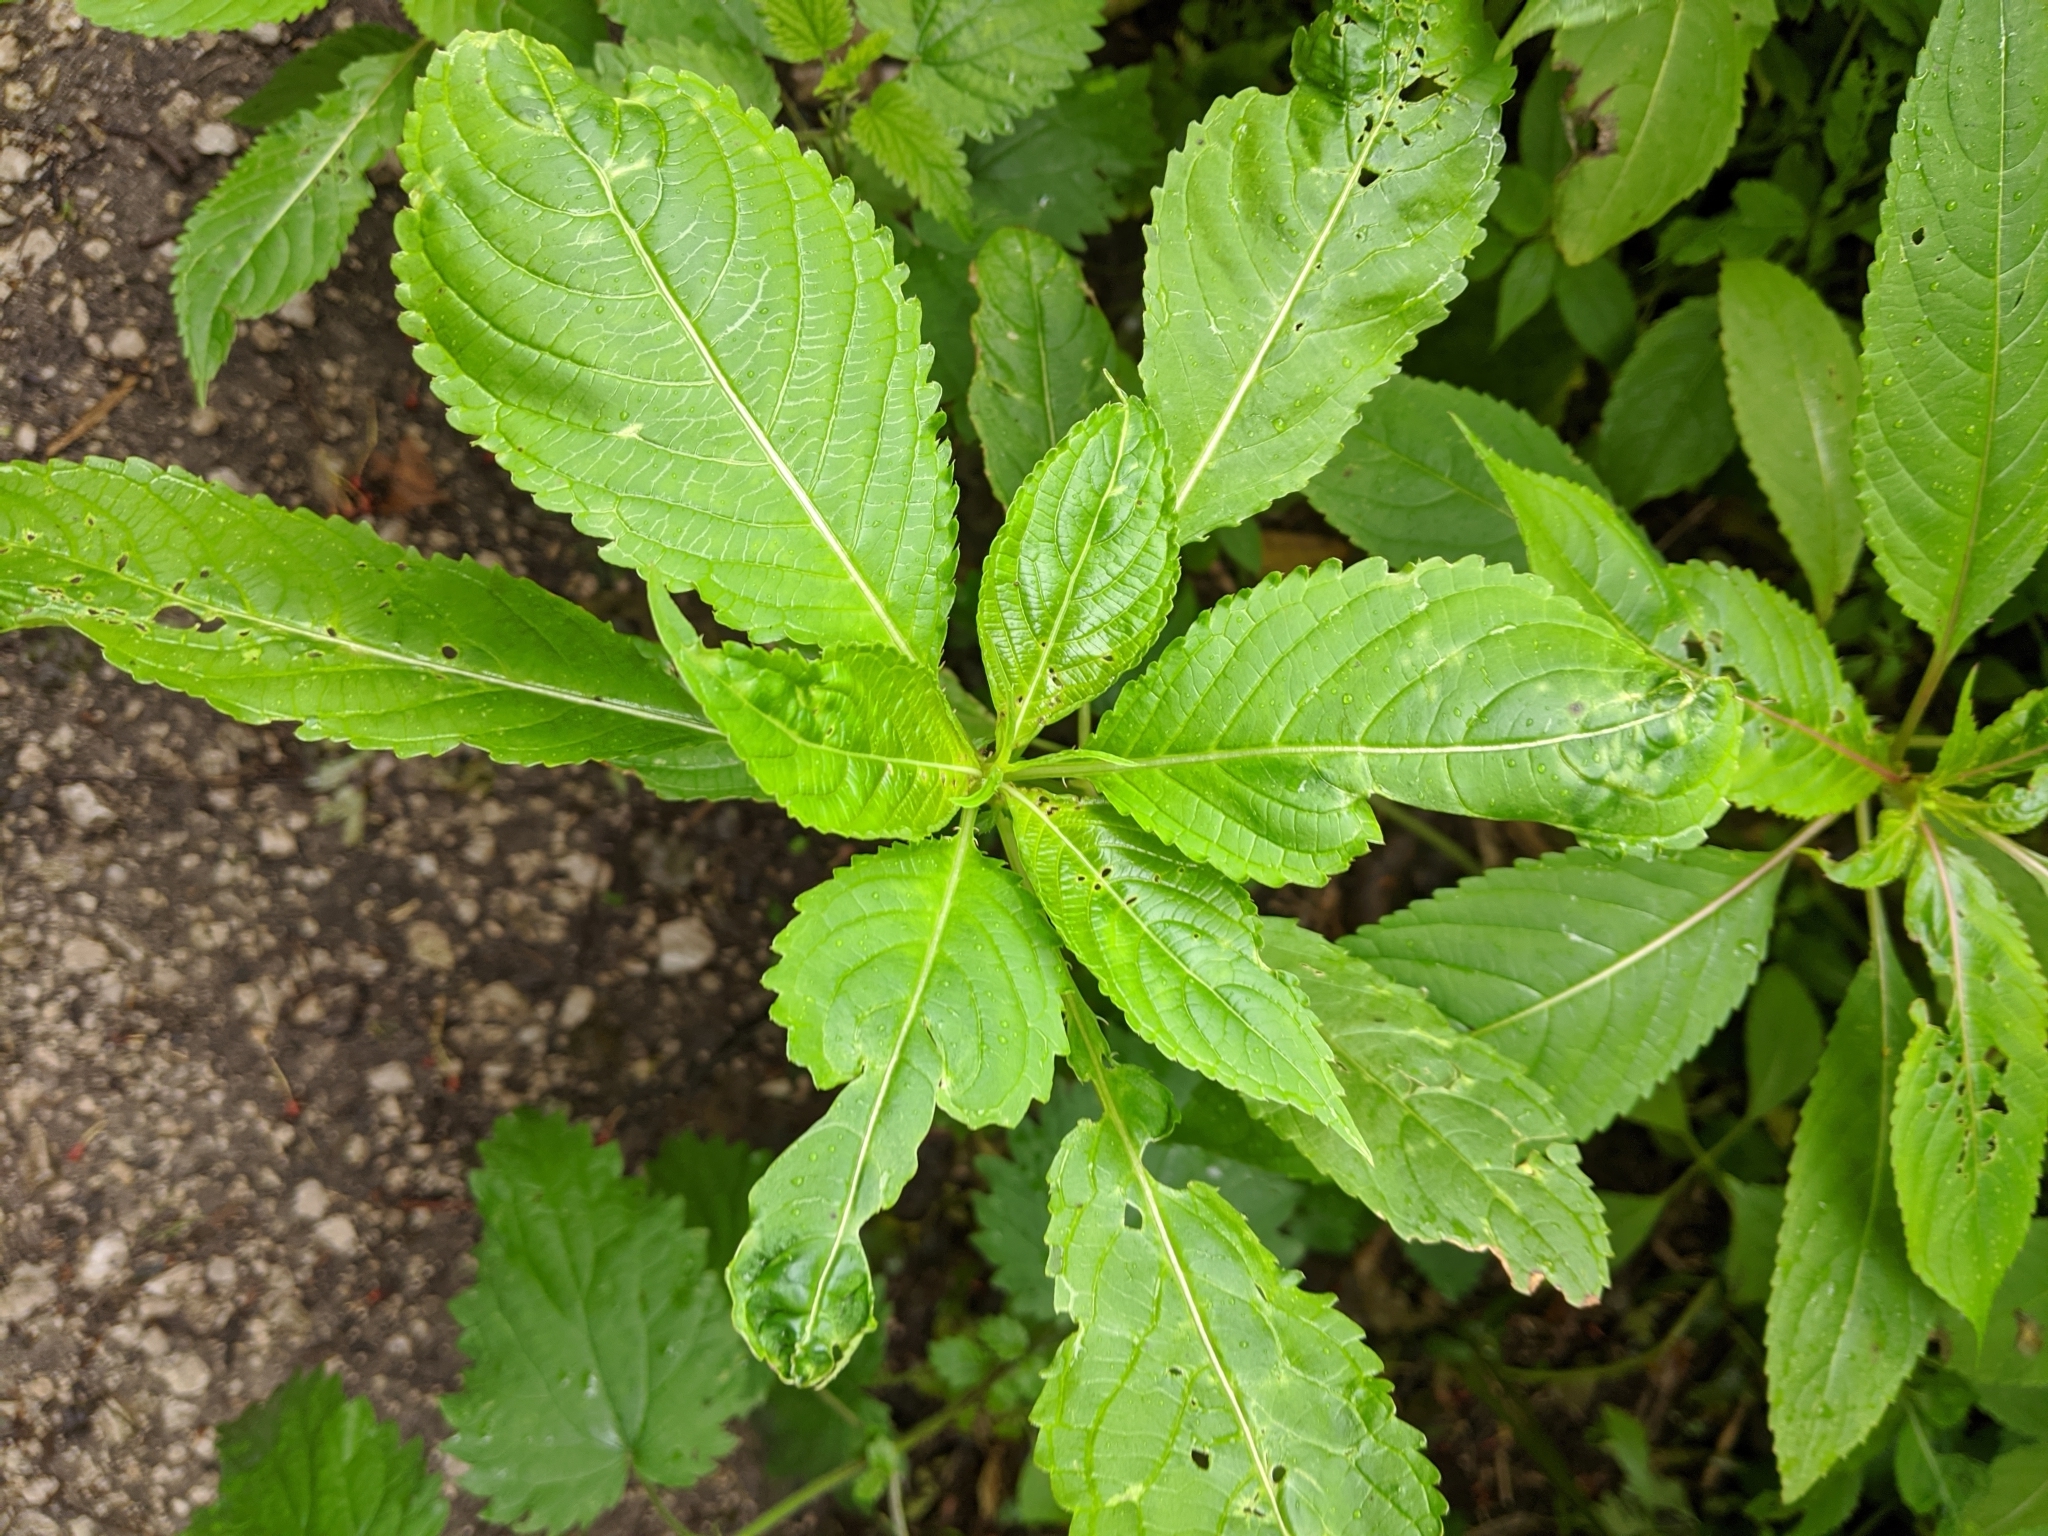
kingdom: Plantae
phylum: Tracheophyta
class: Magnoliopsida
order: Ericales
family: Balsaminaceae
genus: Impatiens
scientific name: Impatiens glandulifera
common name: Himalayan balsam
